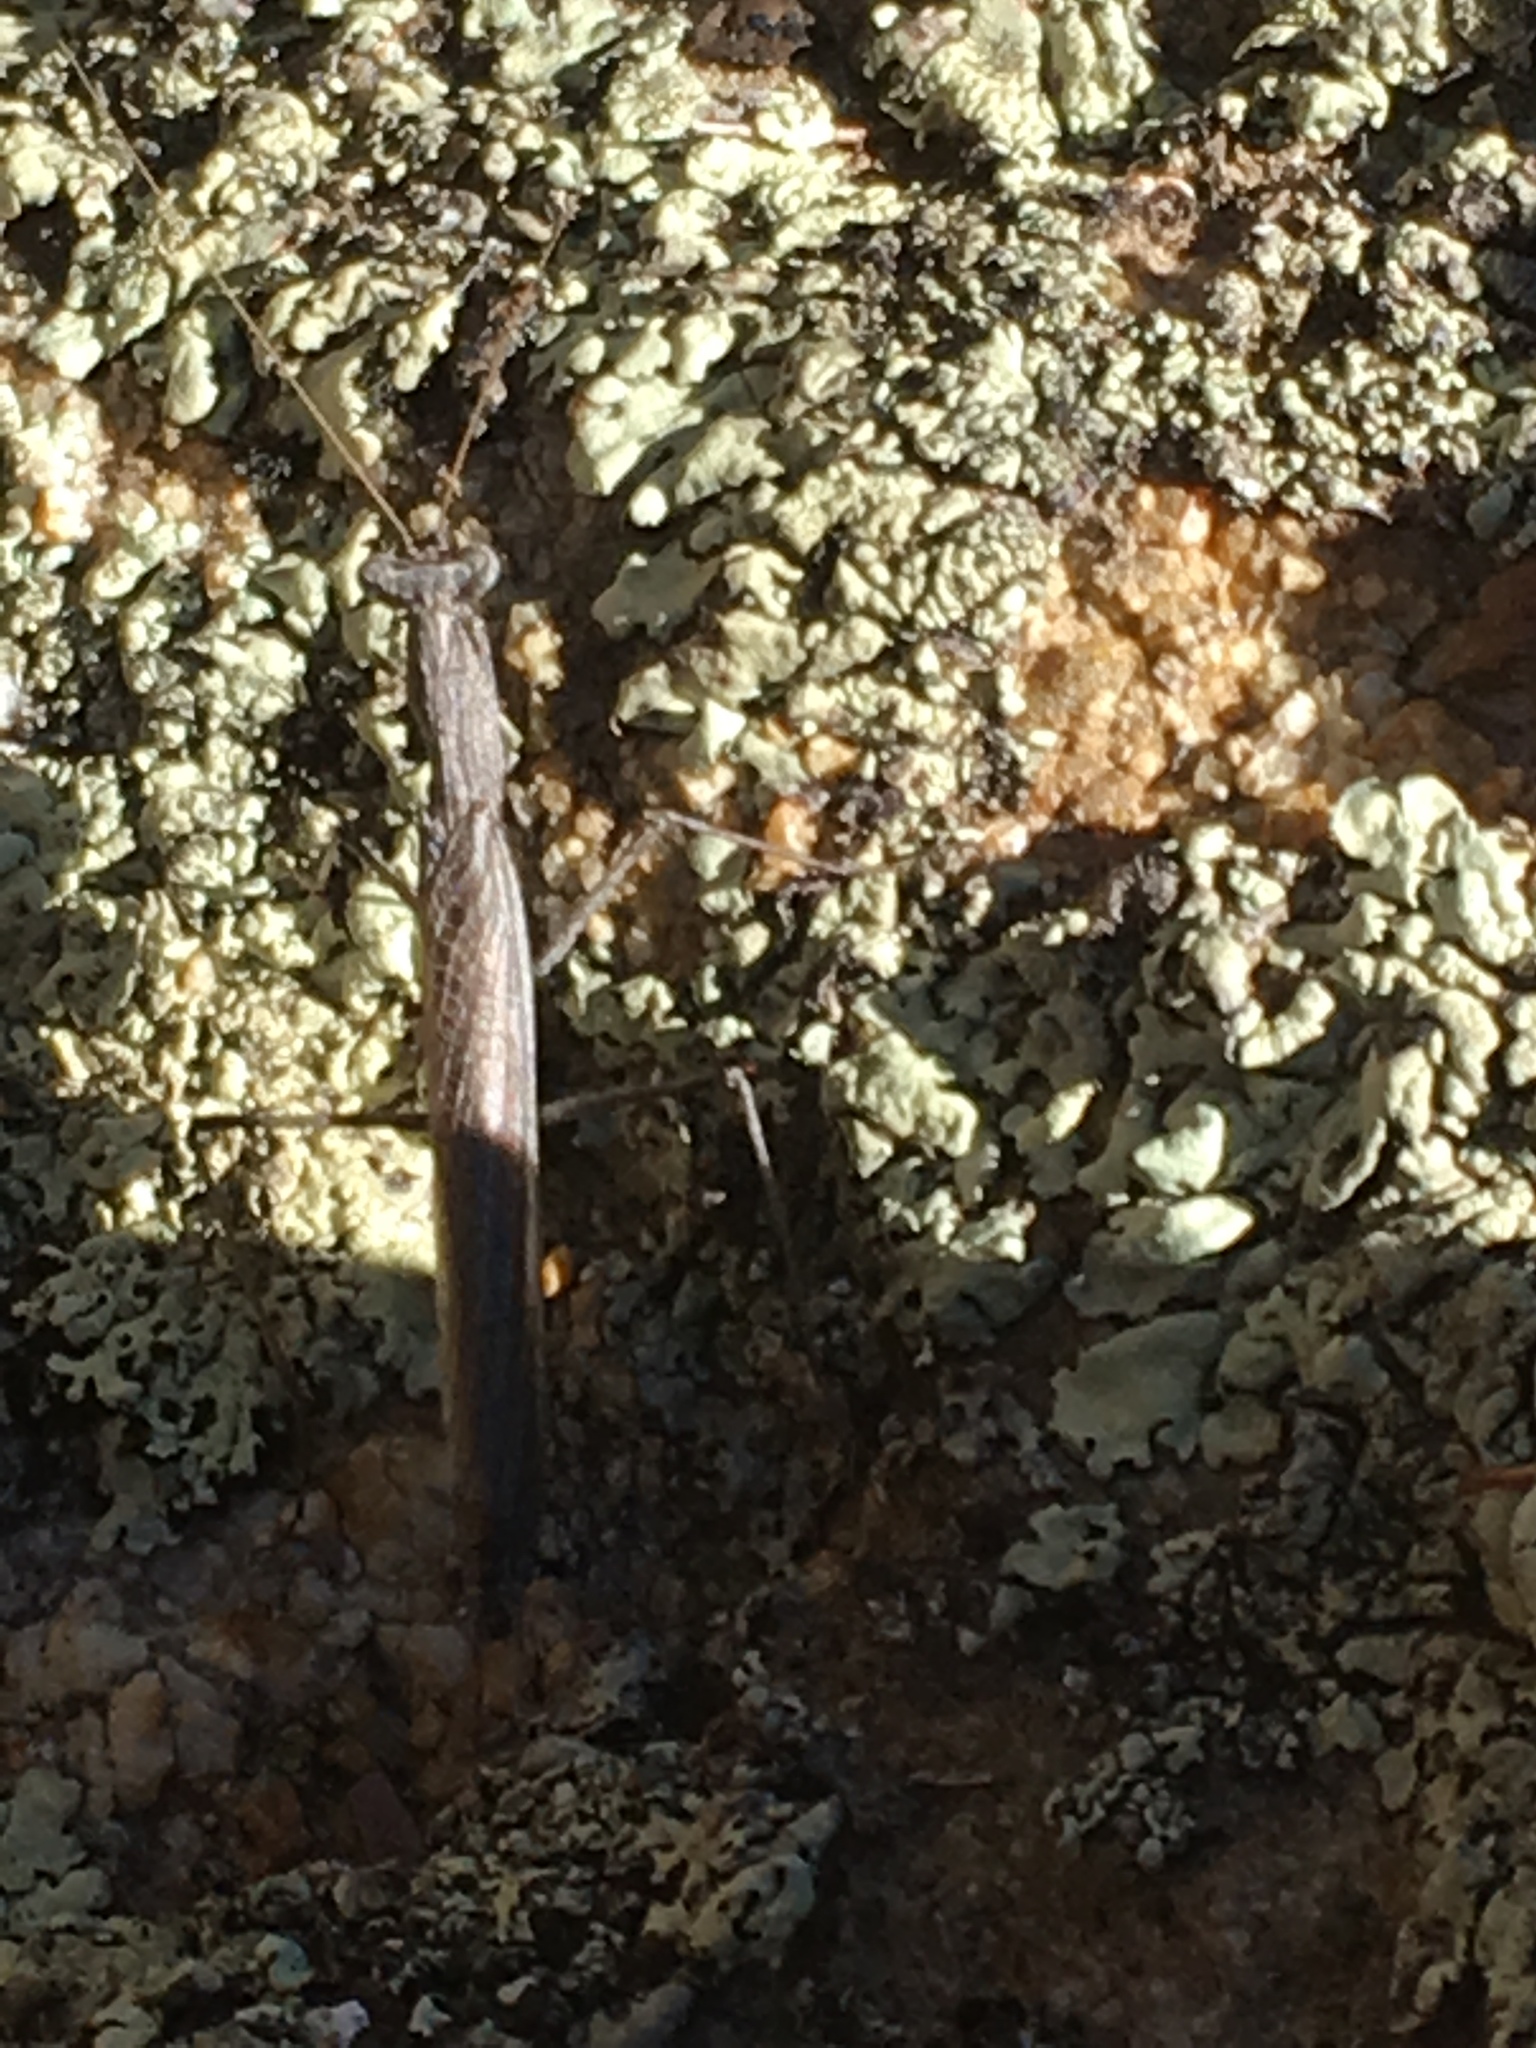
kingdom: Animalia
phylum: Arthropoda
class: Insecta
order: Mantodea
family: Amelidae
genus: Litaneutria
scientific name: Litaneutria pacifica
